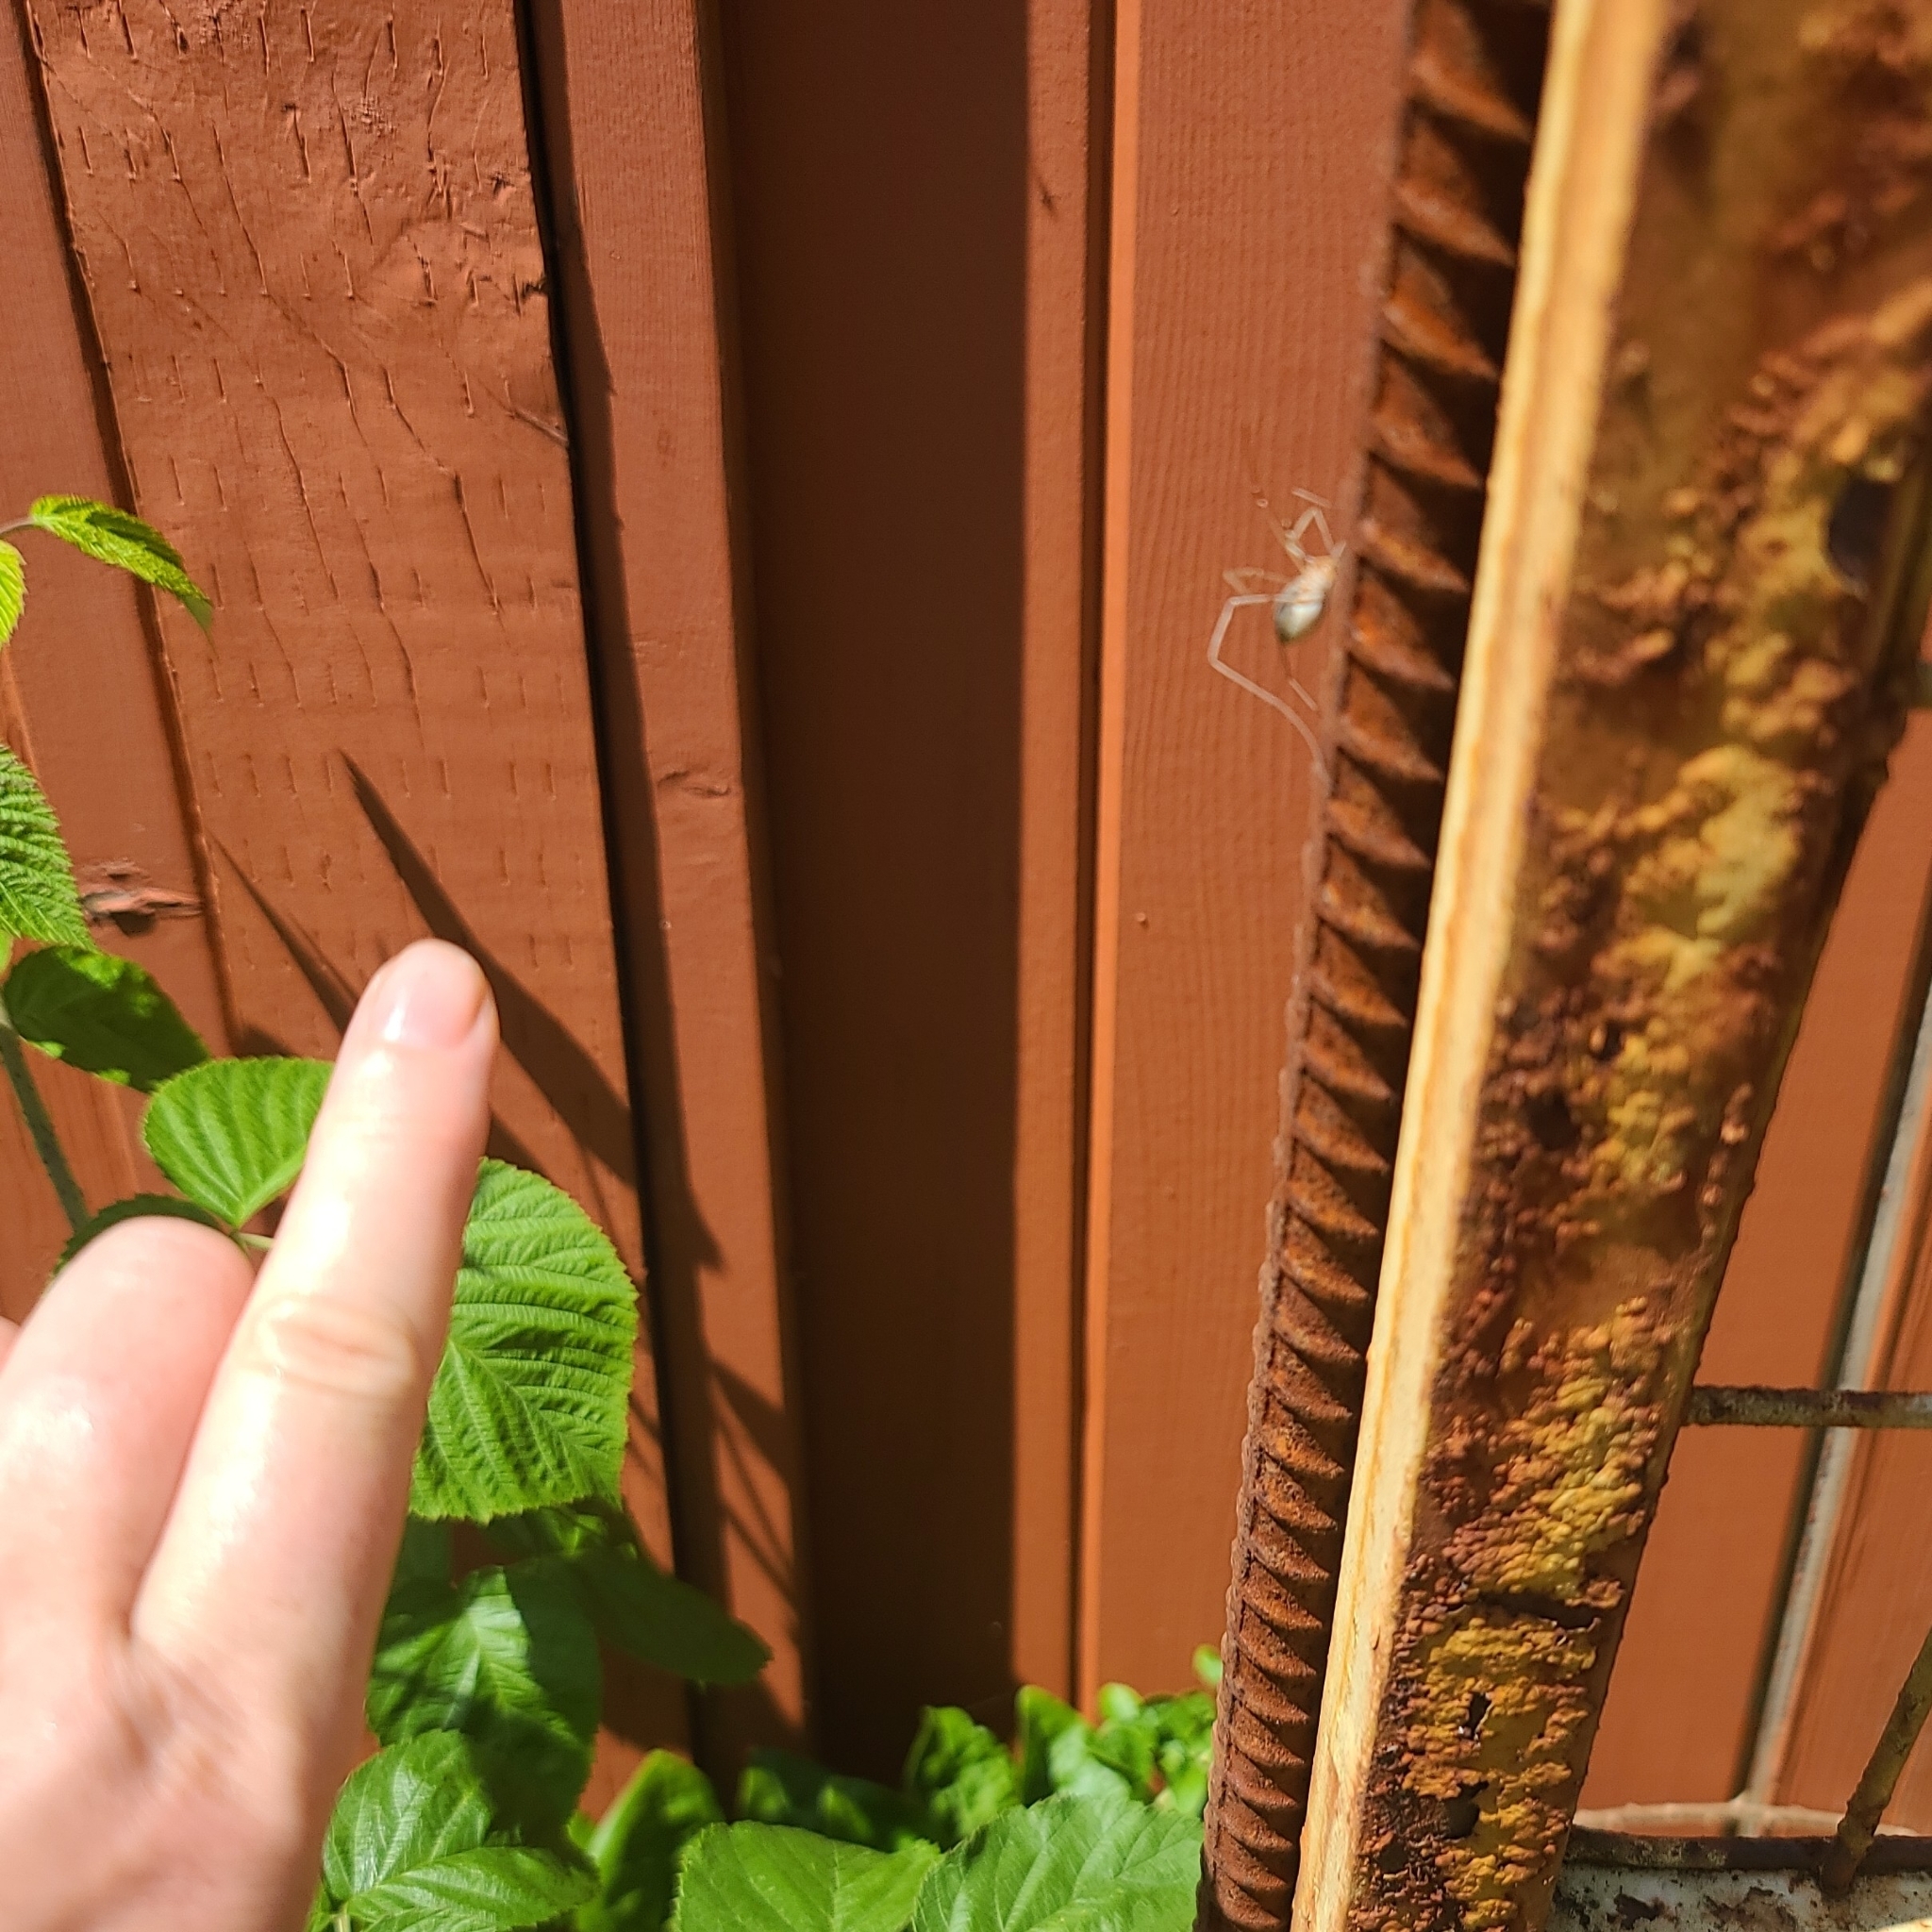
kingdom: Animalia
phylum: Arthropoda
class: Arachnida
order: Opiliones
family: Phalangiidae
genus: Phalangium
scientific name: Phalangium opilio
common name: Daddy longleg
